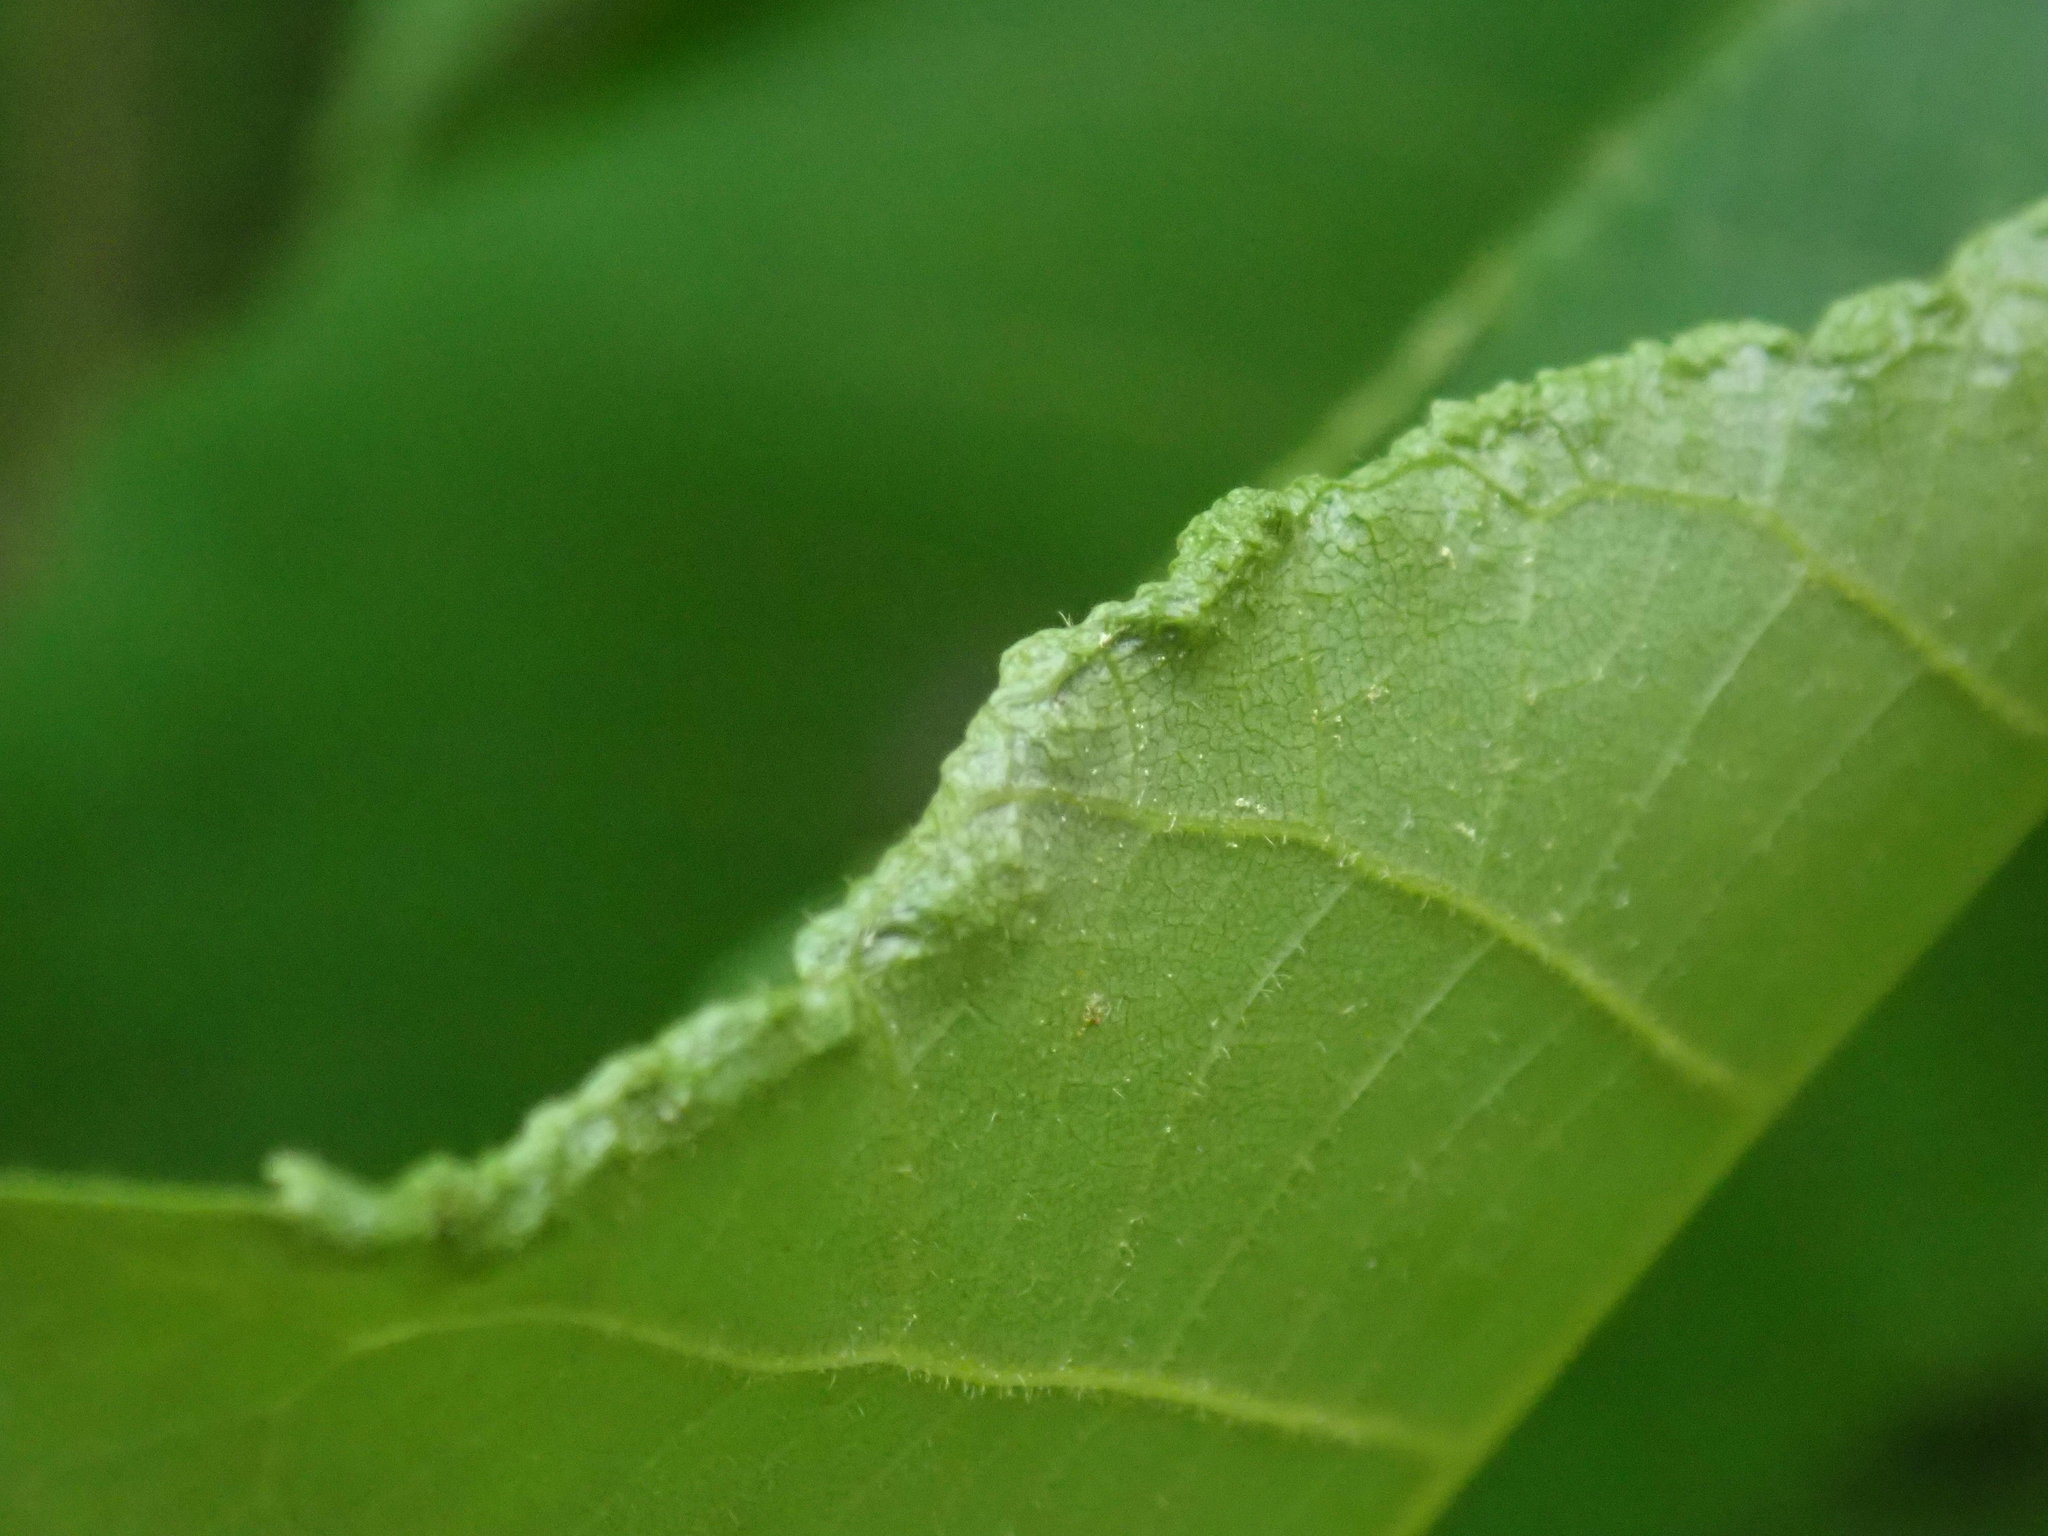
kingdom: Animalia
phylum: Arthropoda
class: Arachnida
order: Trombidiformes
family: Eriophyidae
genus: Aceria
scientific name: Aceria carlinae
